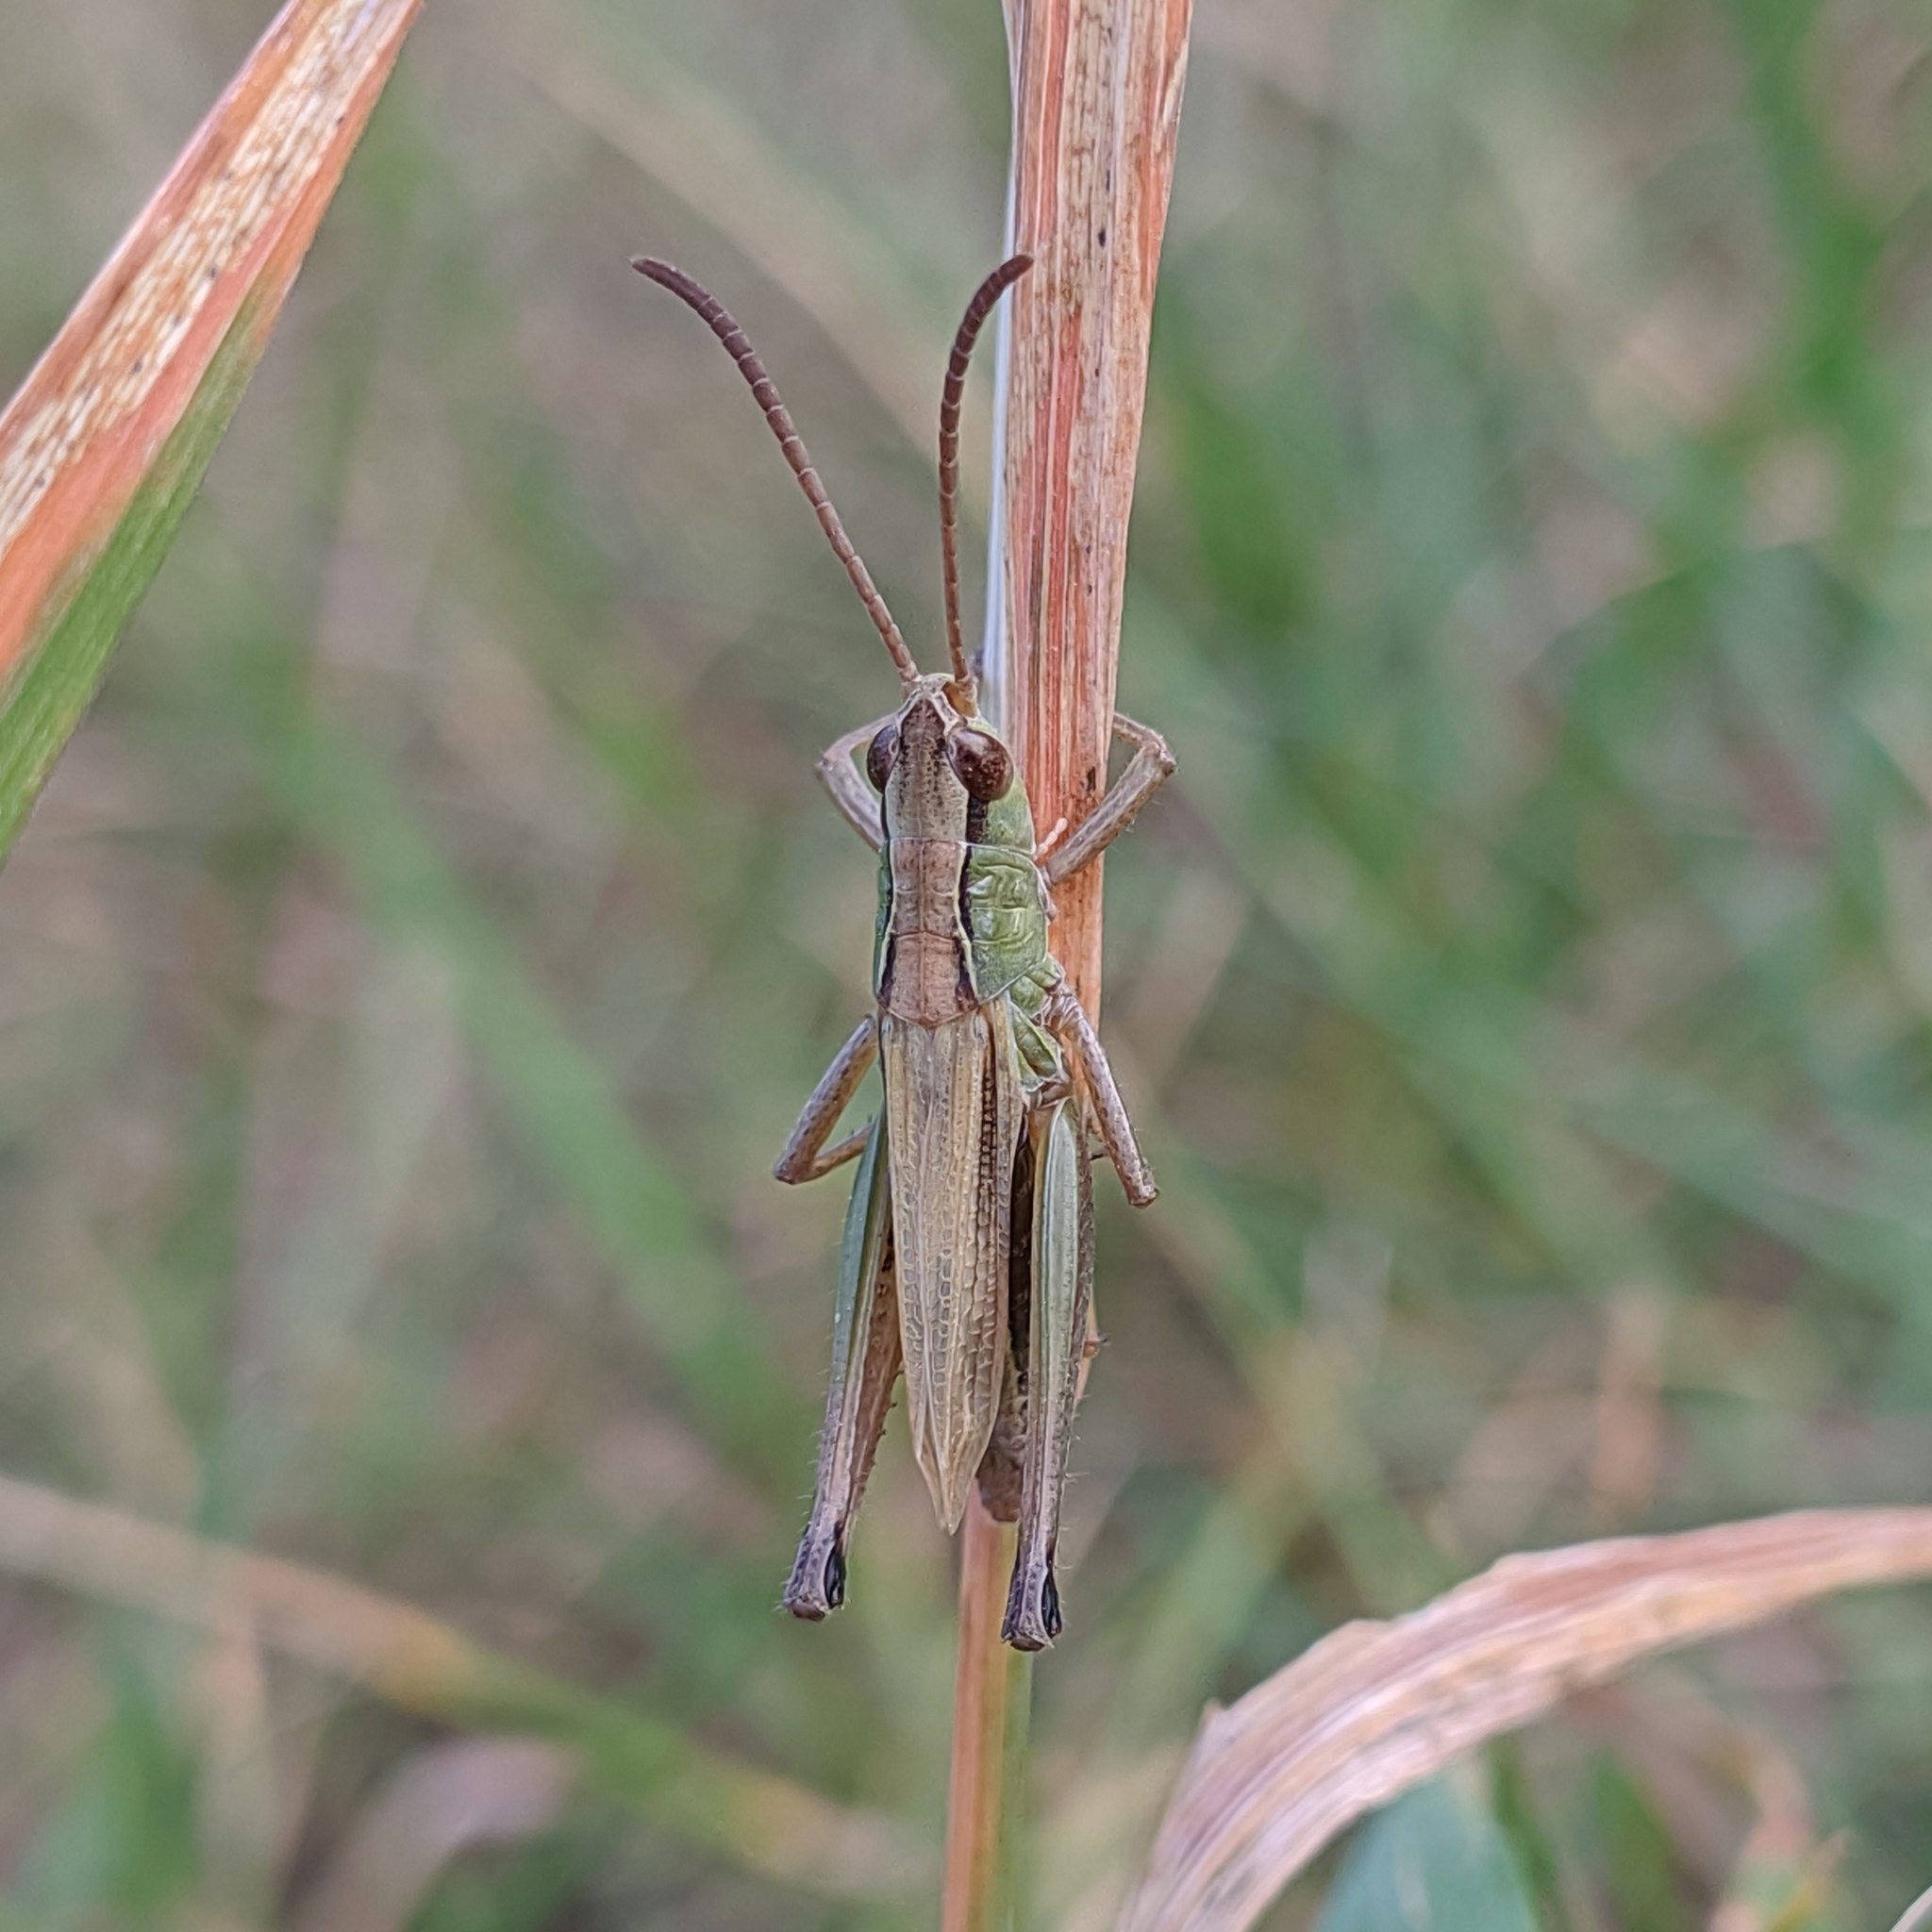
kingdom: Animalia
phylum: Arthropoda
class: Insecta
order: Orthoptera
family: Acrididae
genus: Pseudochorthippus
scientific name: Pseudochorthippus parallelus
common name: Meadow grasshopper
